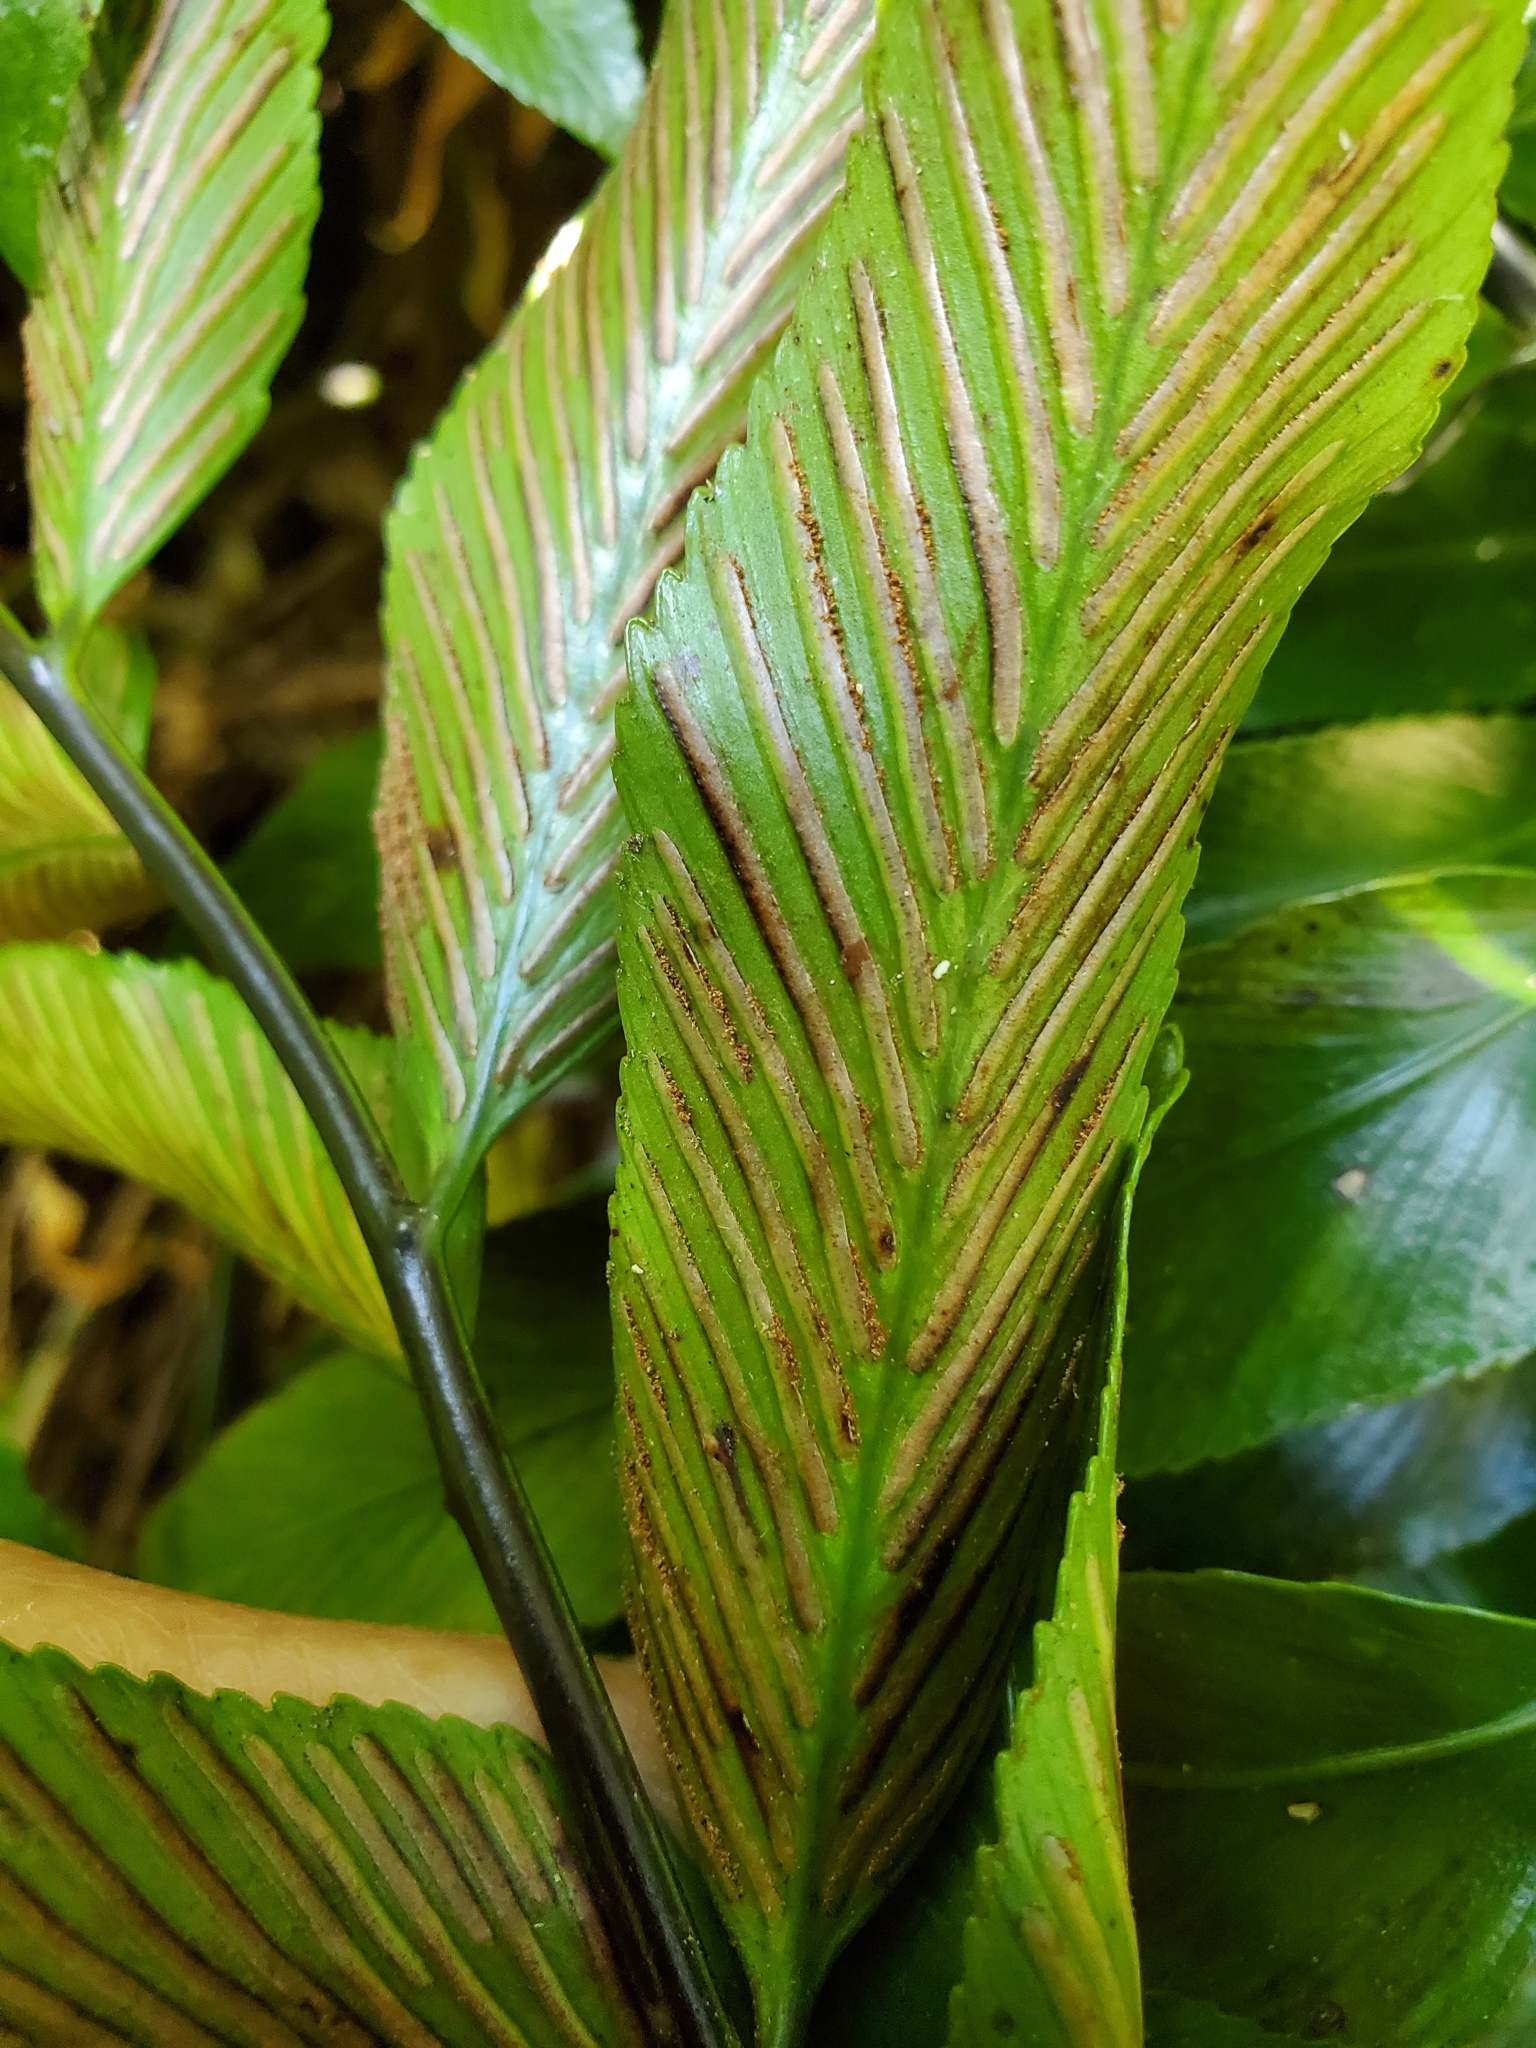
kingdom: Plantae
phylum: Tracheophyta
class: Polypodiopsida
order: Polypodiales
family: Aspleniaceae
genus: Asplenium
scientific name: Asplenium oblongifolium
